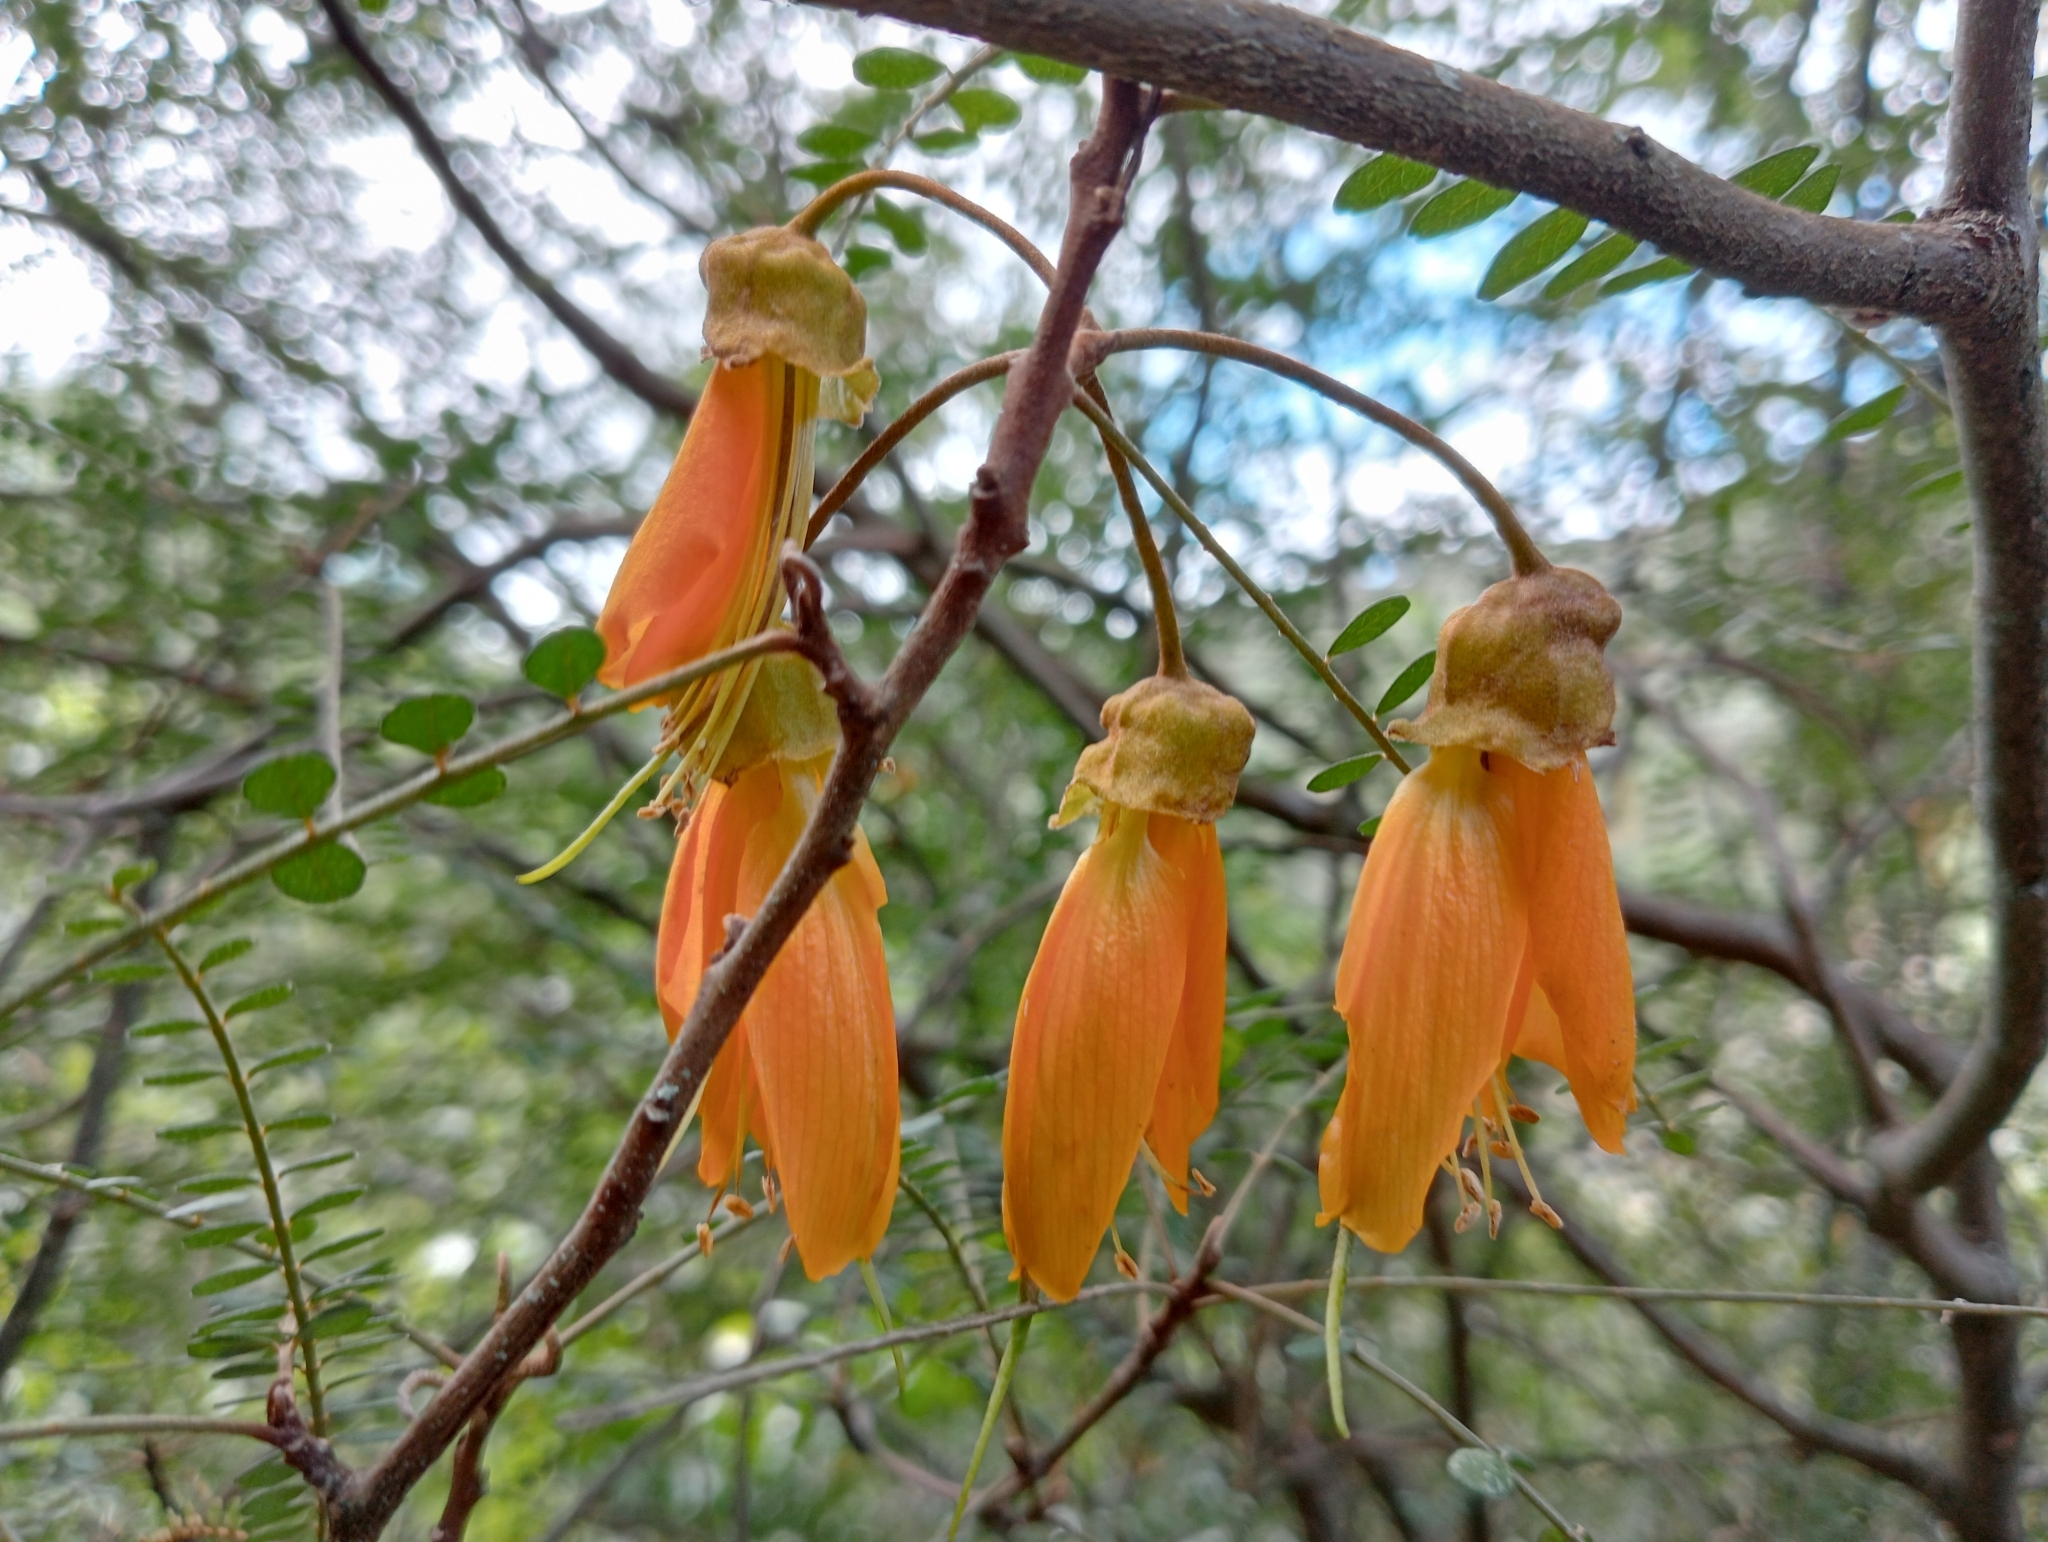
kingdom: Plantae
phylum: Tracheophyta
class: Magnoliopsida
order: Fabales
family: Fabaceae
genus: Sophora
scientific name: Sophora microphylla
